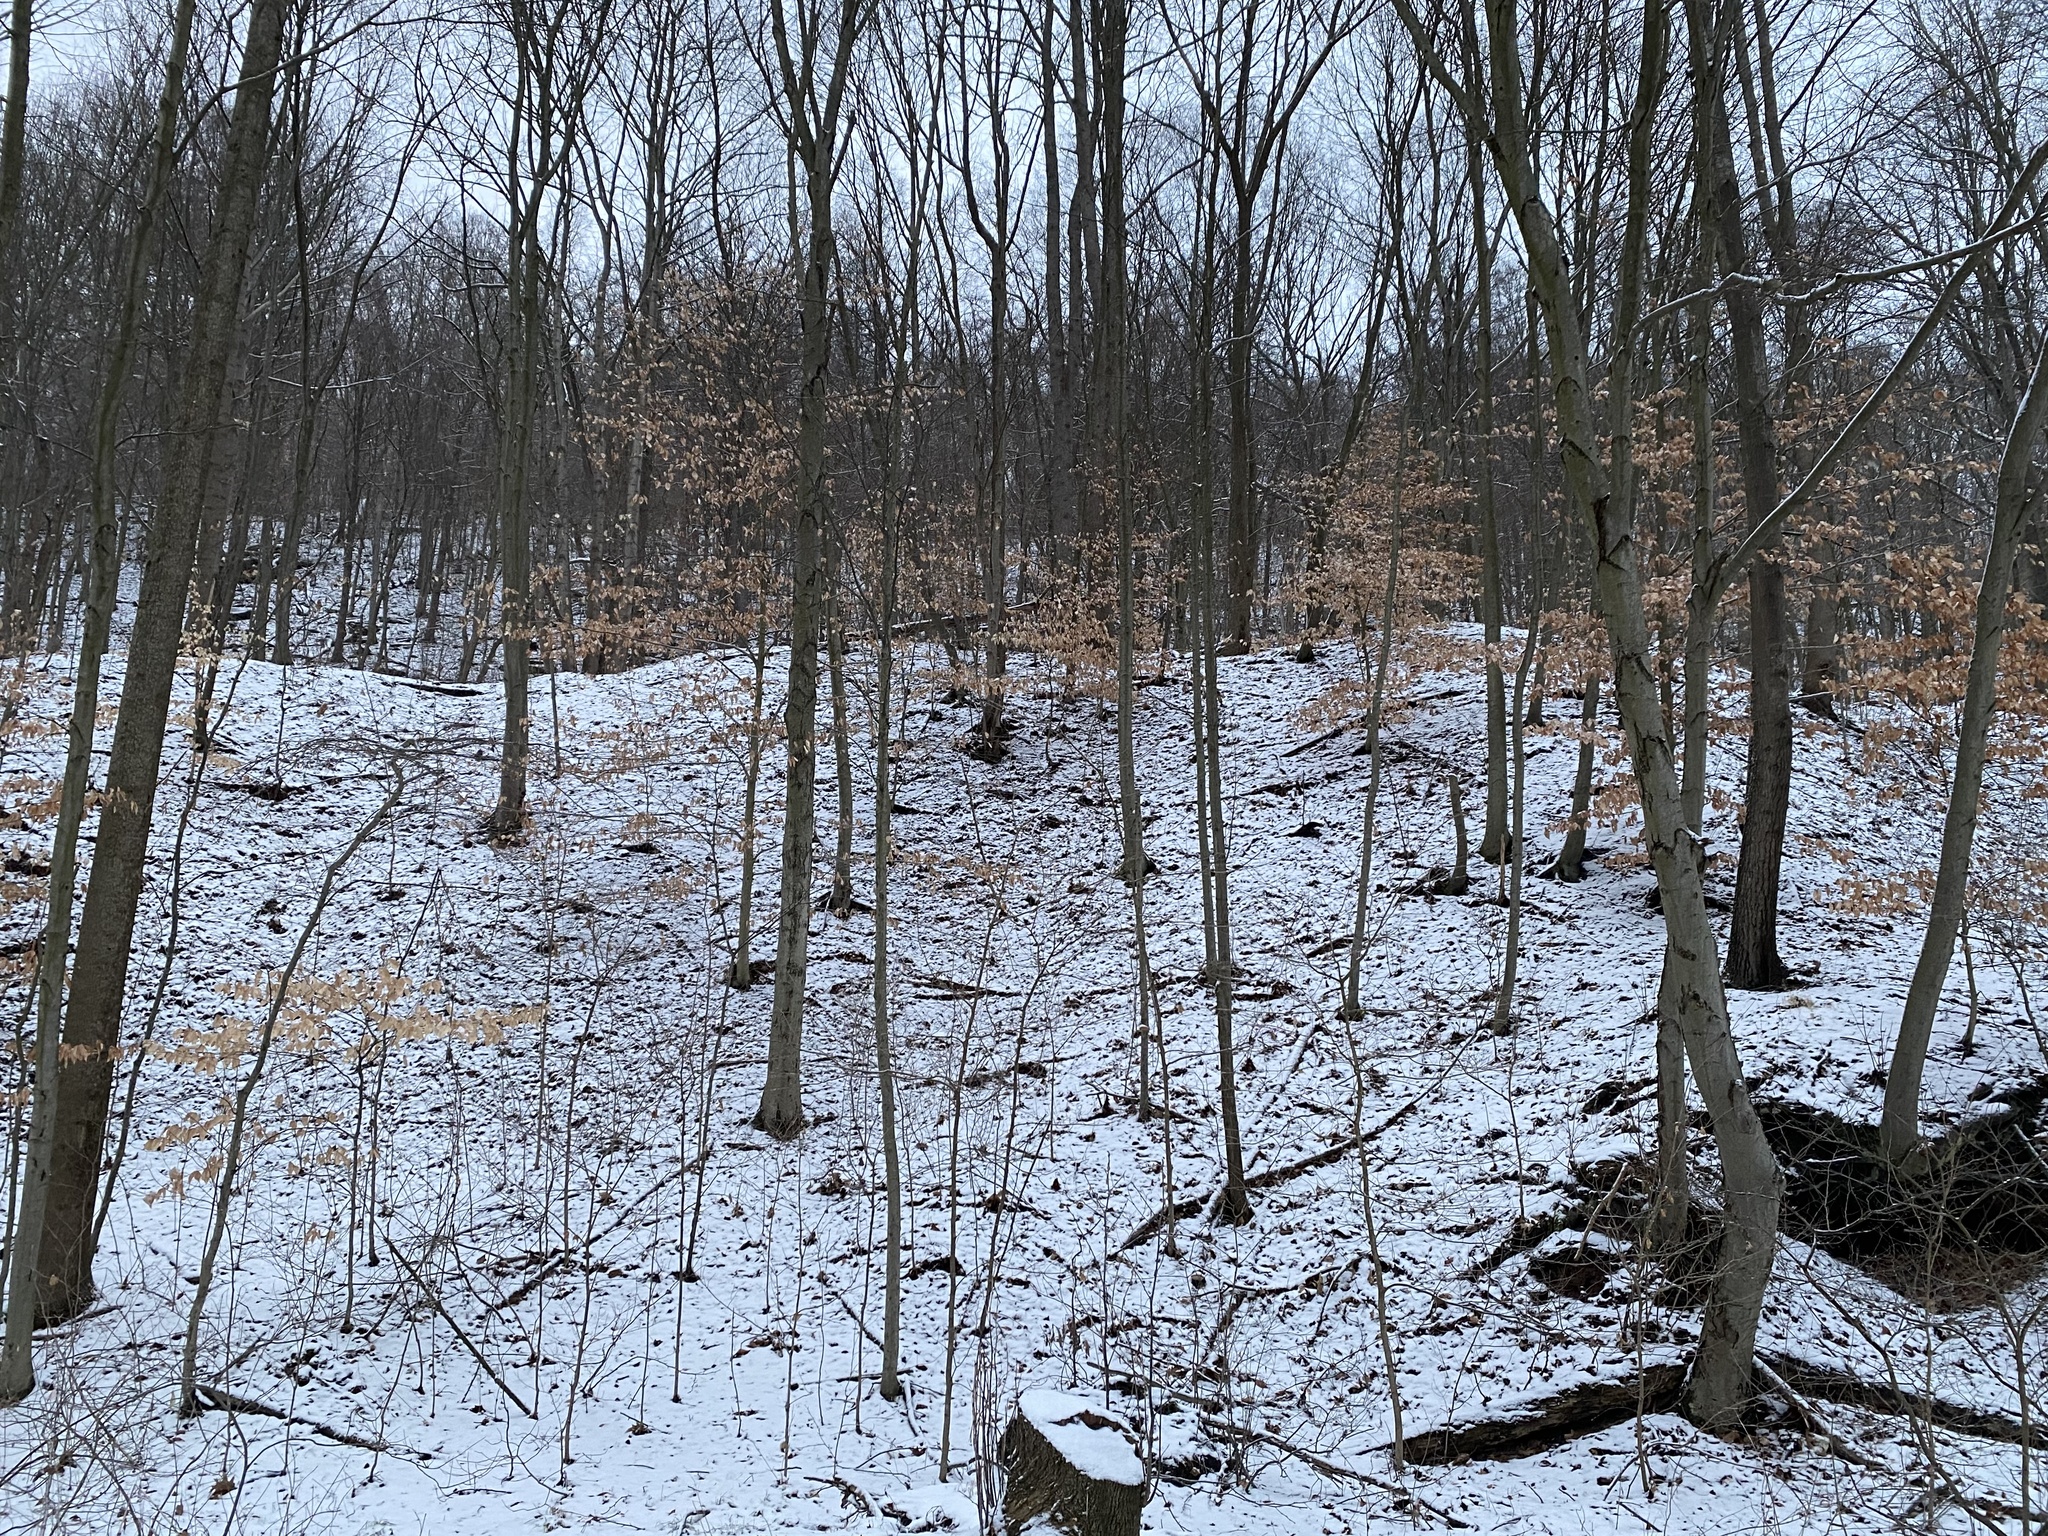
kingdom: Plantae
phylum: Tracheophyta
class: Magnoliopsida
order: Fagales
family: Fagaceae
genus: Fagus
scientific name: Fagus grandifolia
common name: American beech
